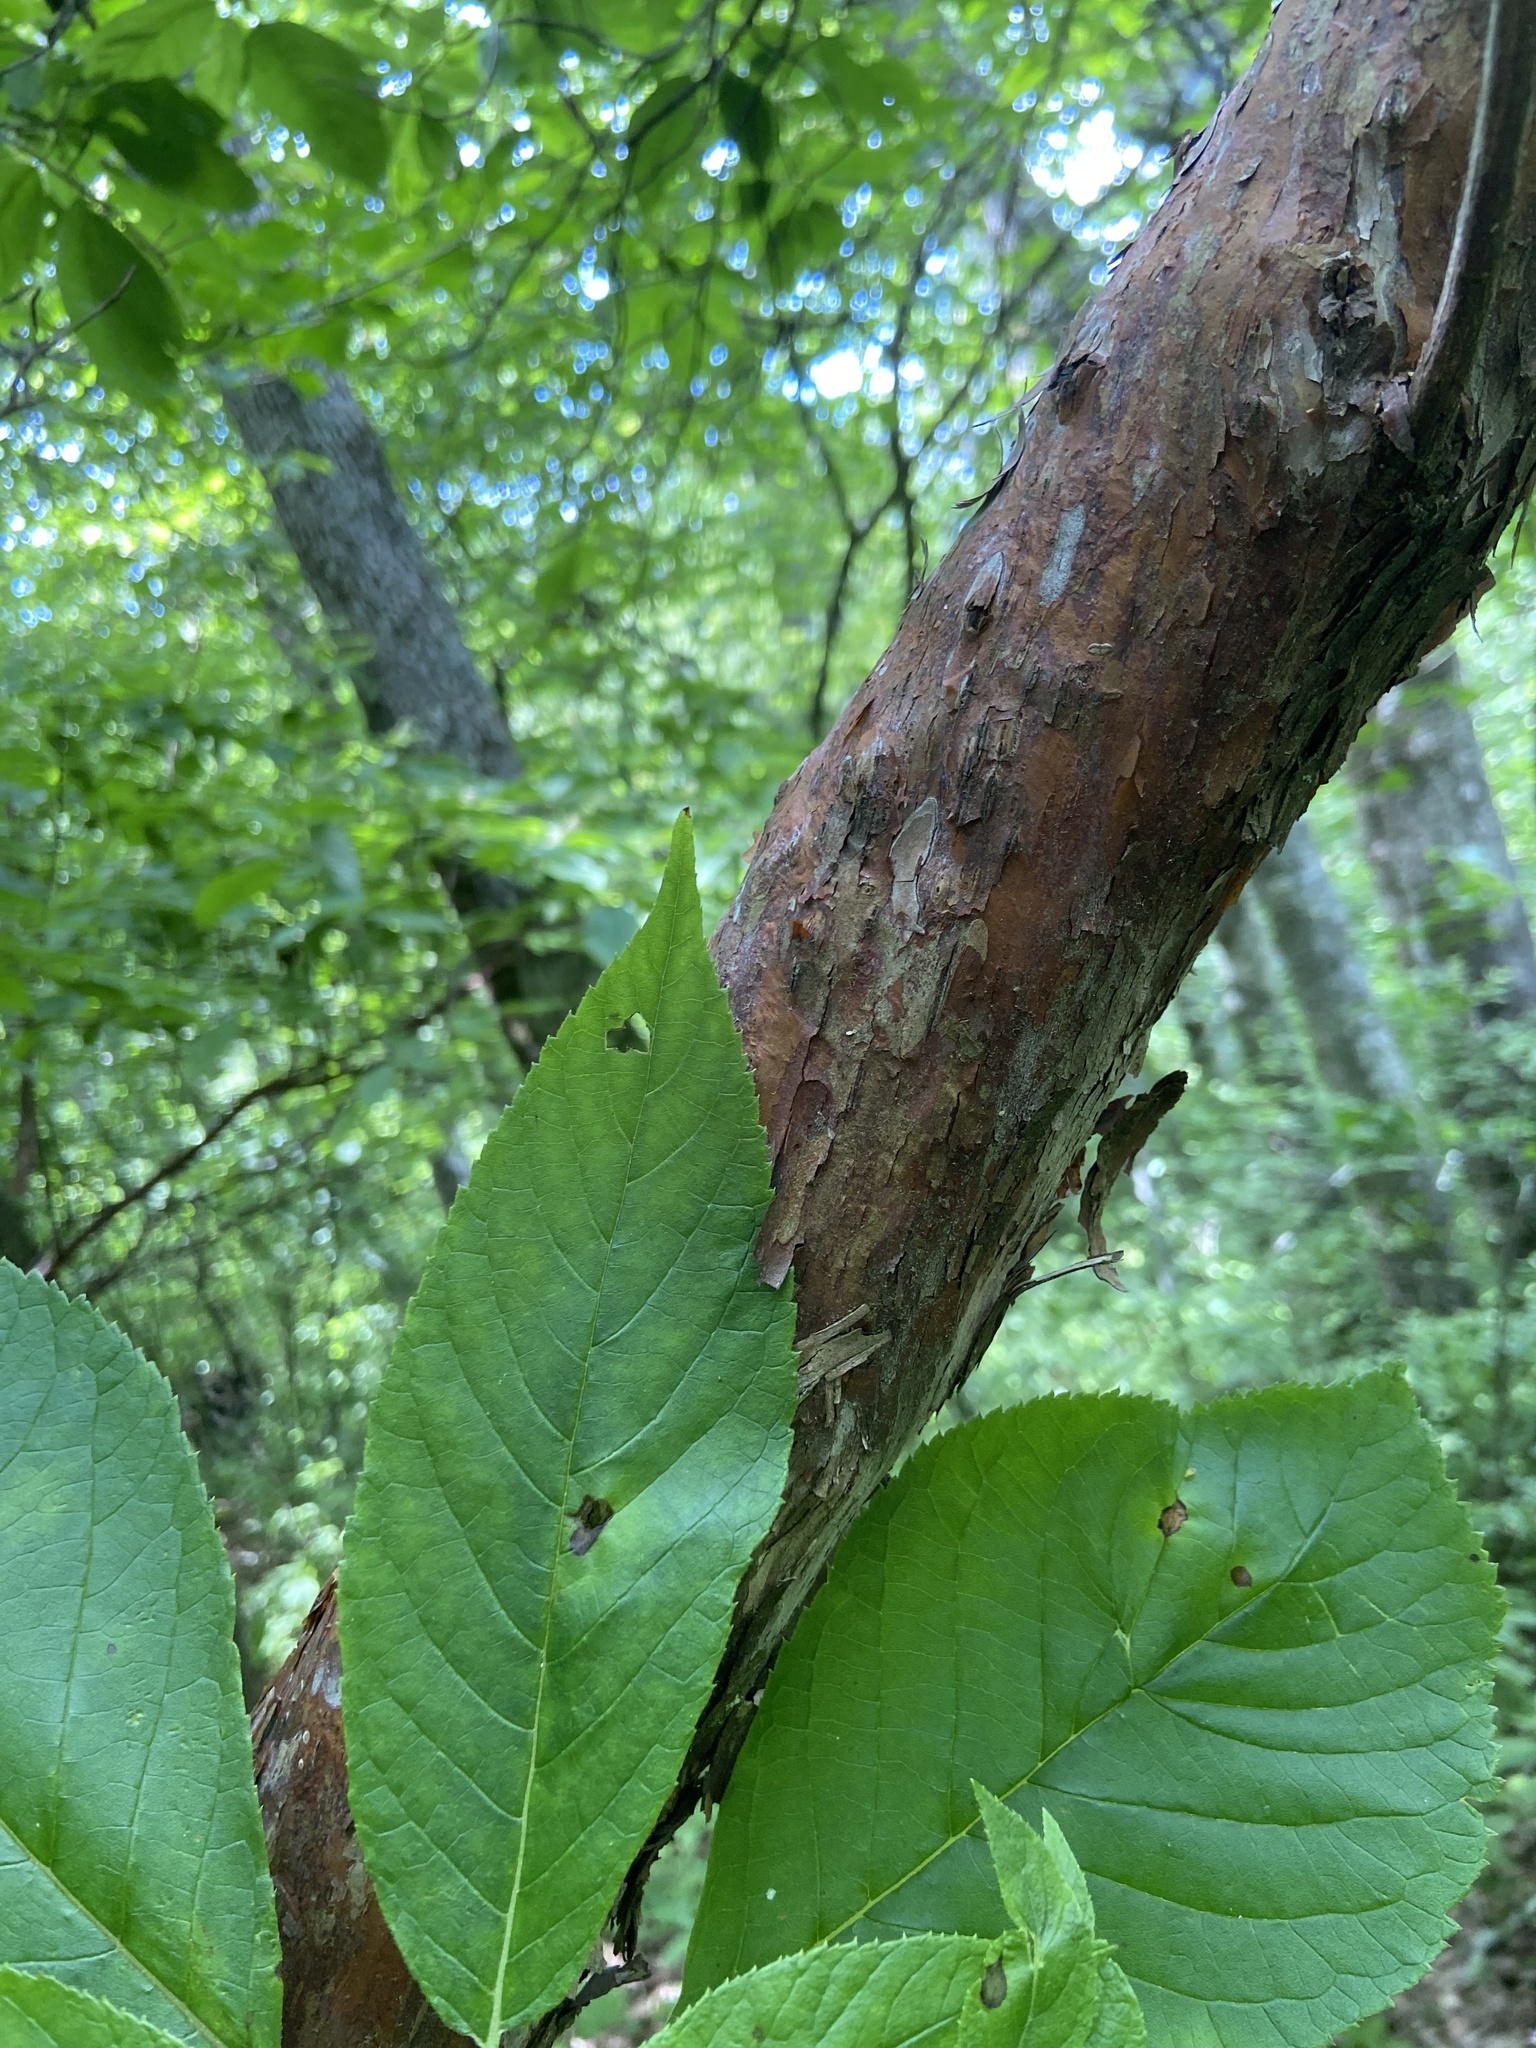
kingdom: Plantae
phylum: Tracheophyta
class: Magnoliopsida
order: Ericales
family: Clethraceae
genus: Clethra
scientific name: Clethra acuminata
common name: Mountain sweet pepperbush
